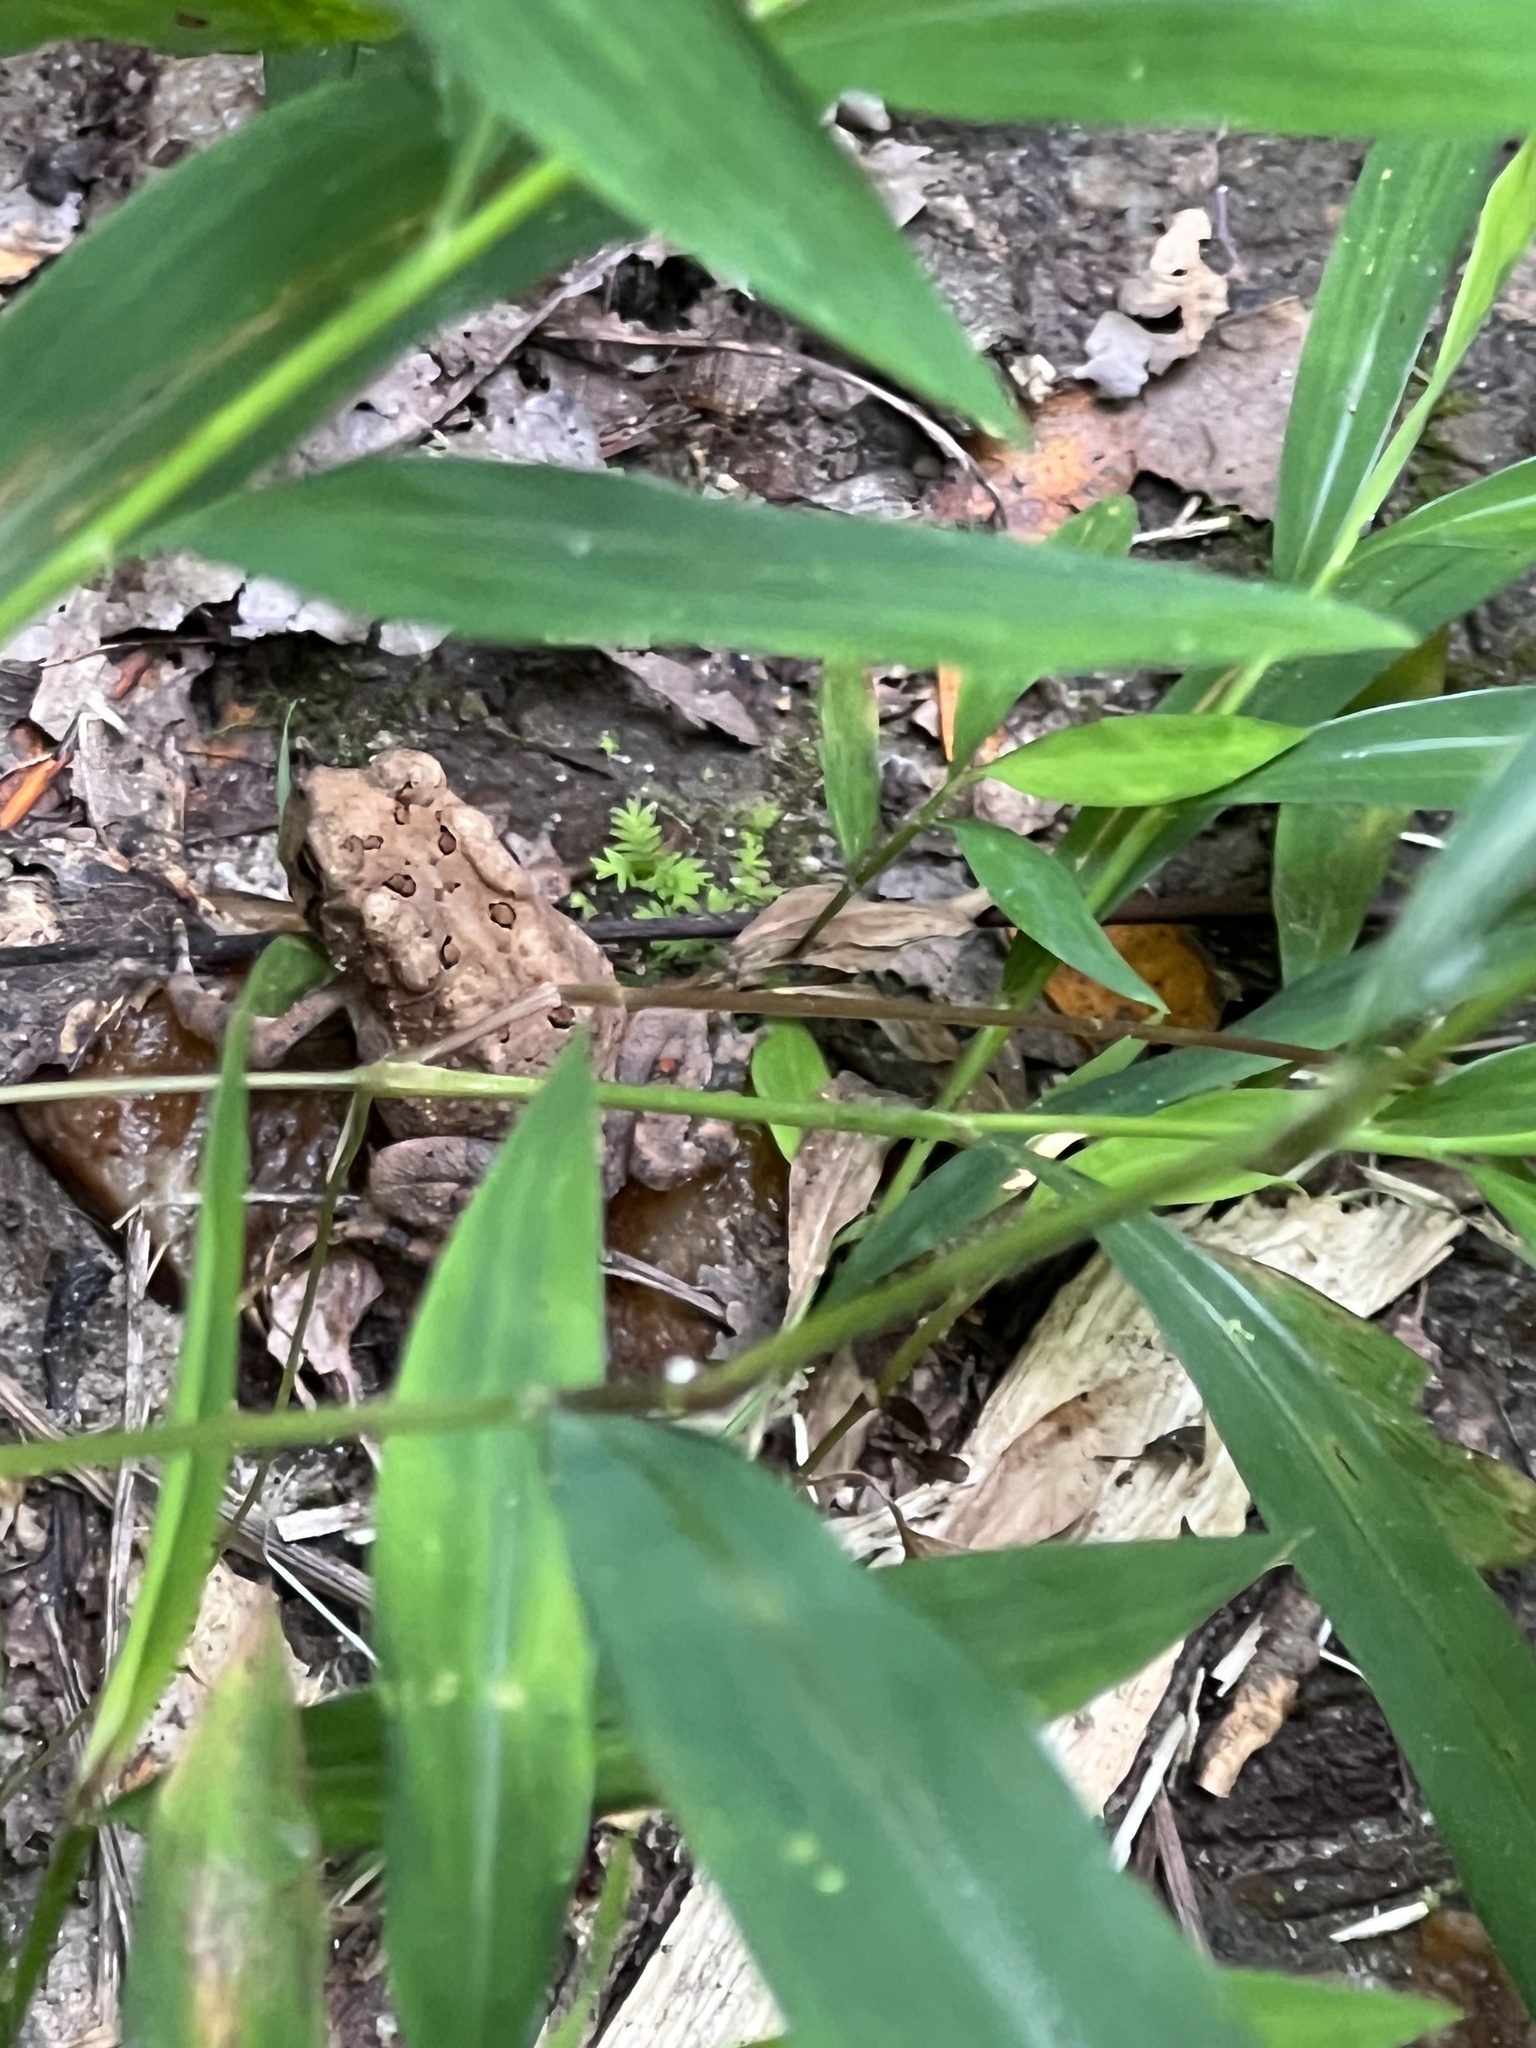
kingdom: Animalia
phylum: Chordata
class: Amphibia
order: Anura
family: Bufonidae
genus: Anaxyrus
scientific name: Anaxyrus americanus
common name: American toad
